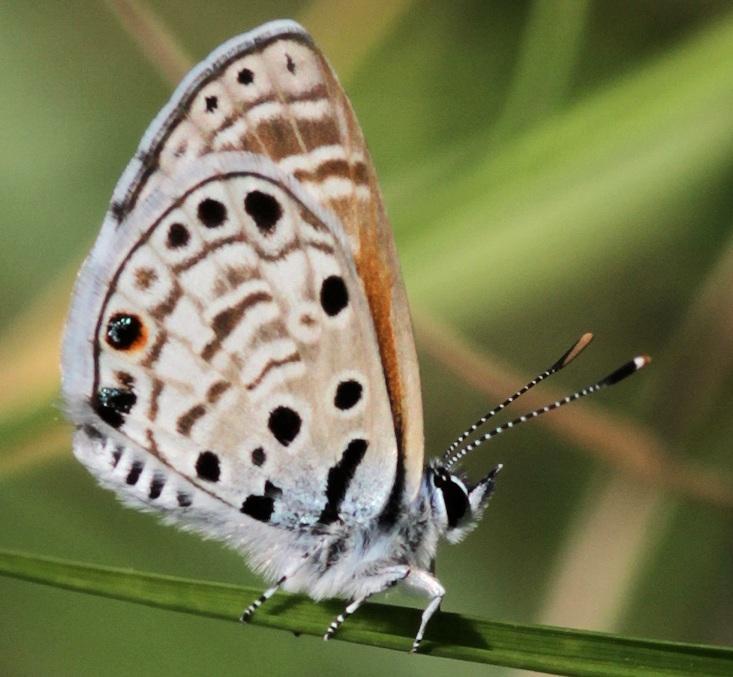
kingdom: Animalia
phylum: Arthropoda
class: Insecta
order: Lepidoptera
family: Lycaenidae
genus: Azanus
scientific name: Azanus jesous
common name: African babul blue
